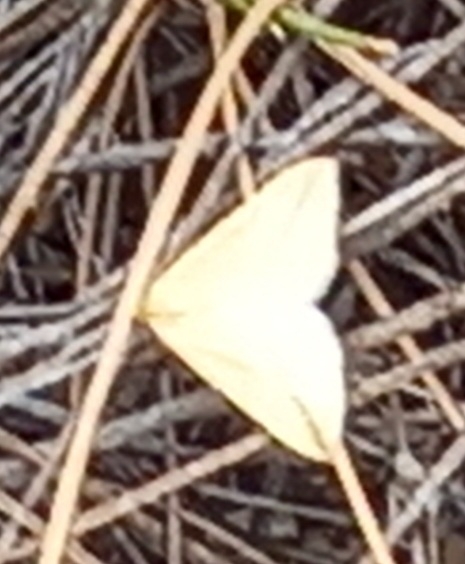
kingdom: Animalia
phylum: Arthropoda
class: Insecta
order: Lepidoptera
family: Geometridae
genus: Rhodometra
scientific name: Rhodometra sacraria
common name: Vestal
